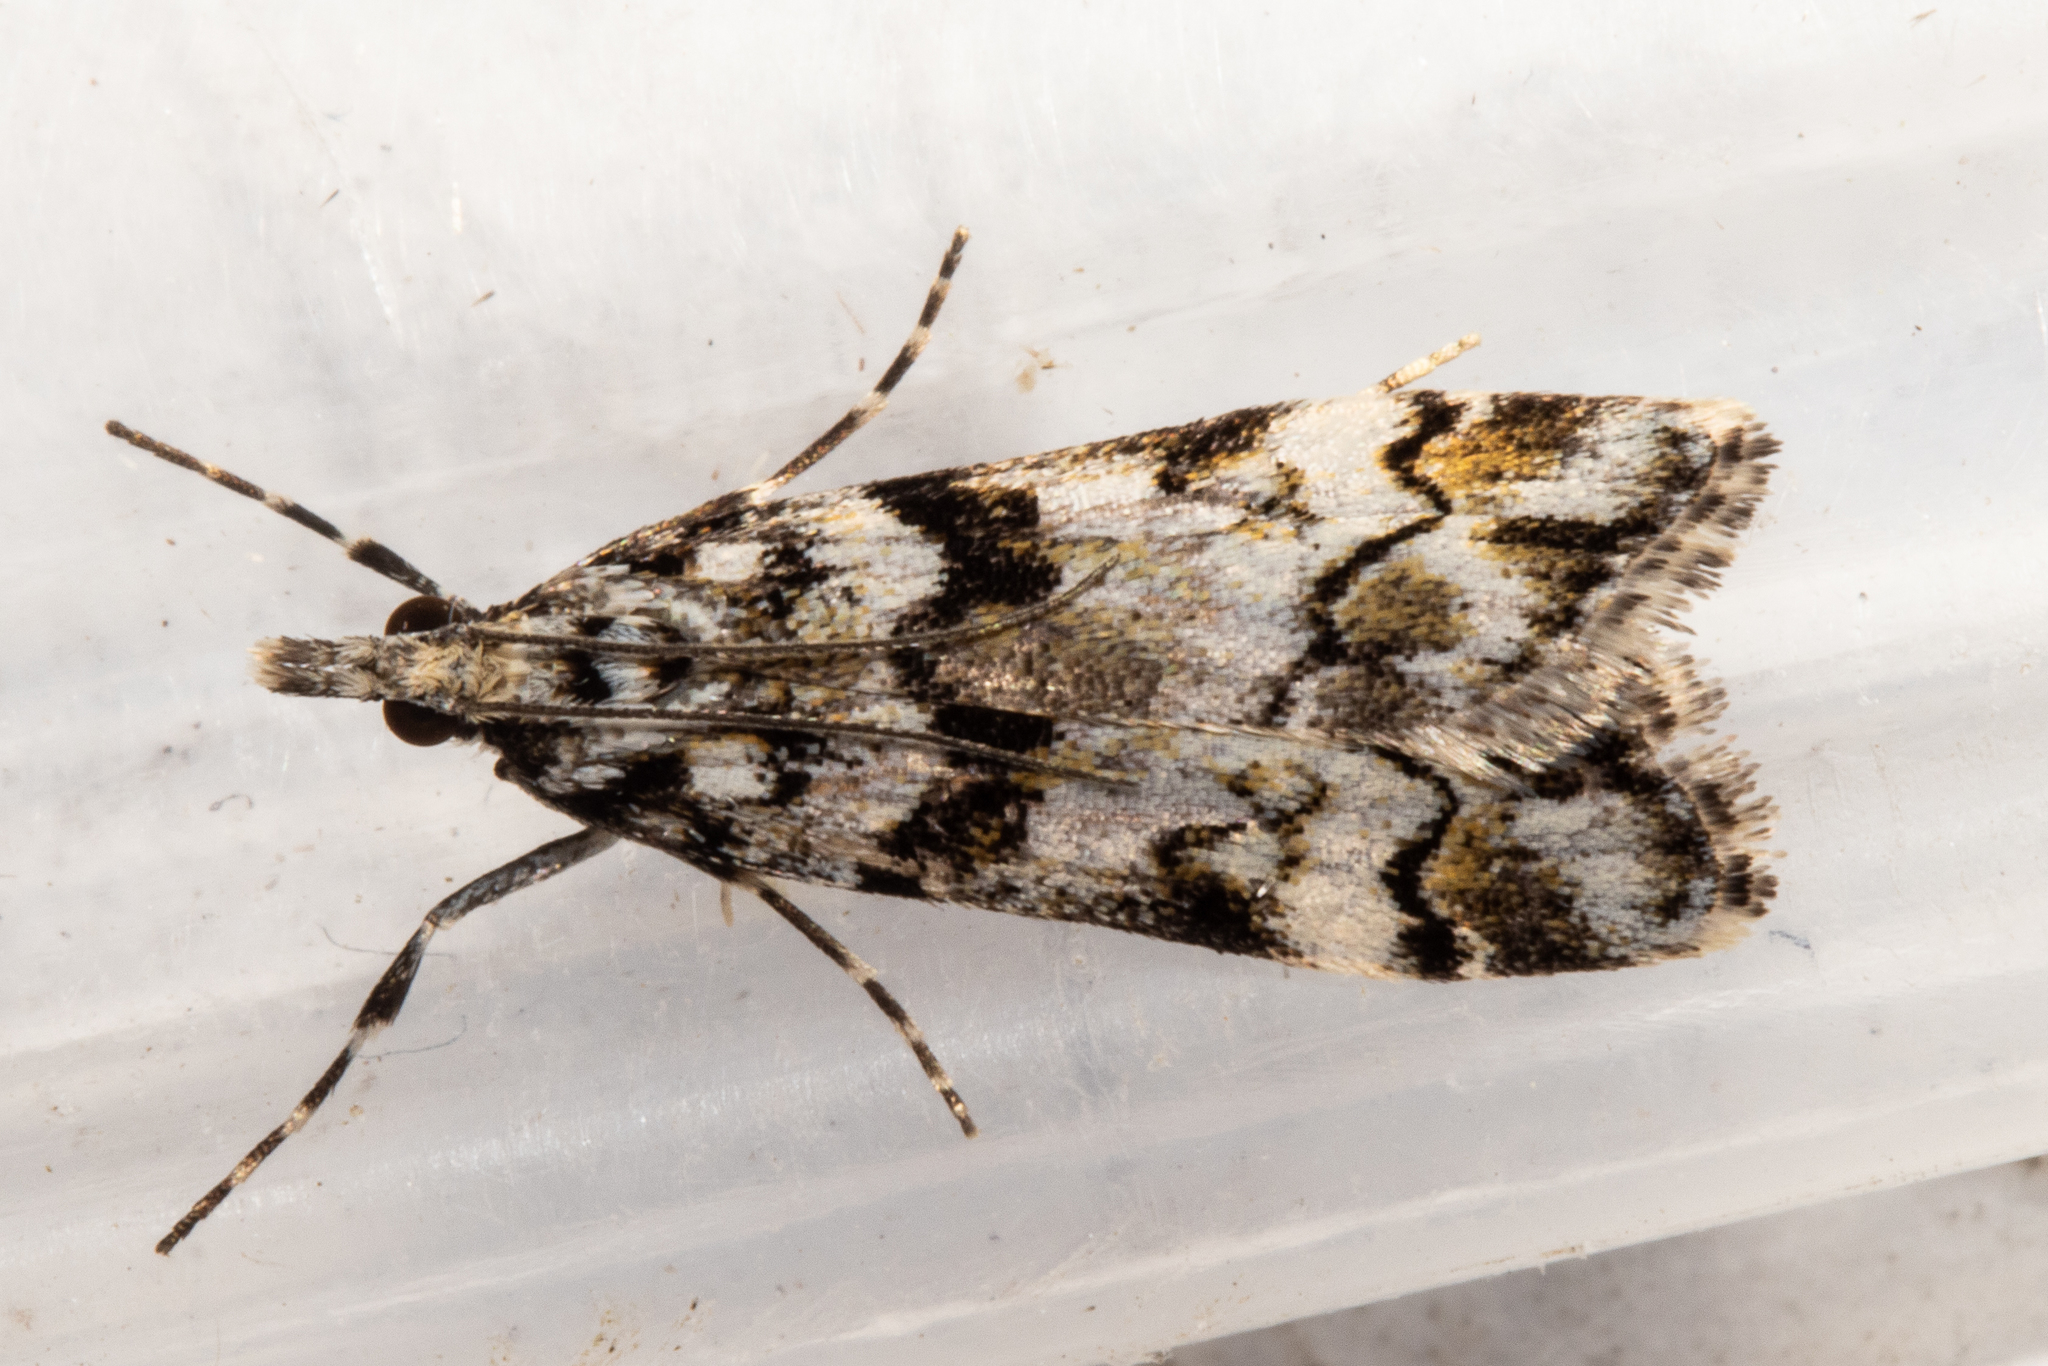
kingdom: Animalia
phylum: Arthropoda
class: Insecta
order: Lepidoptera
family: Crambidae
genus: Eudonia
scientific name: Eudonia torodes
